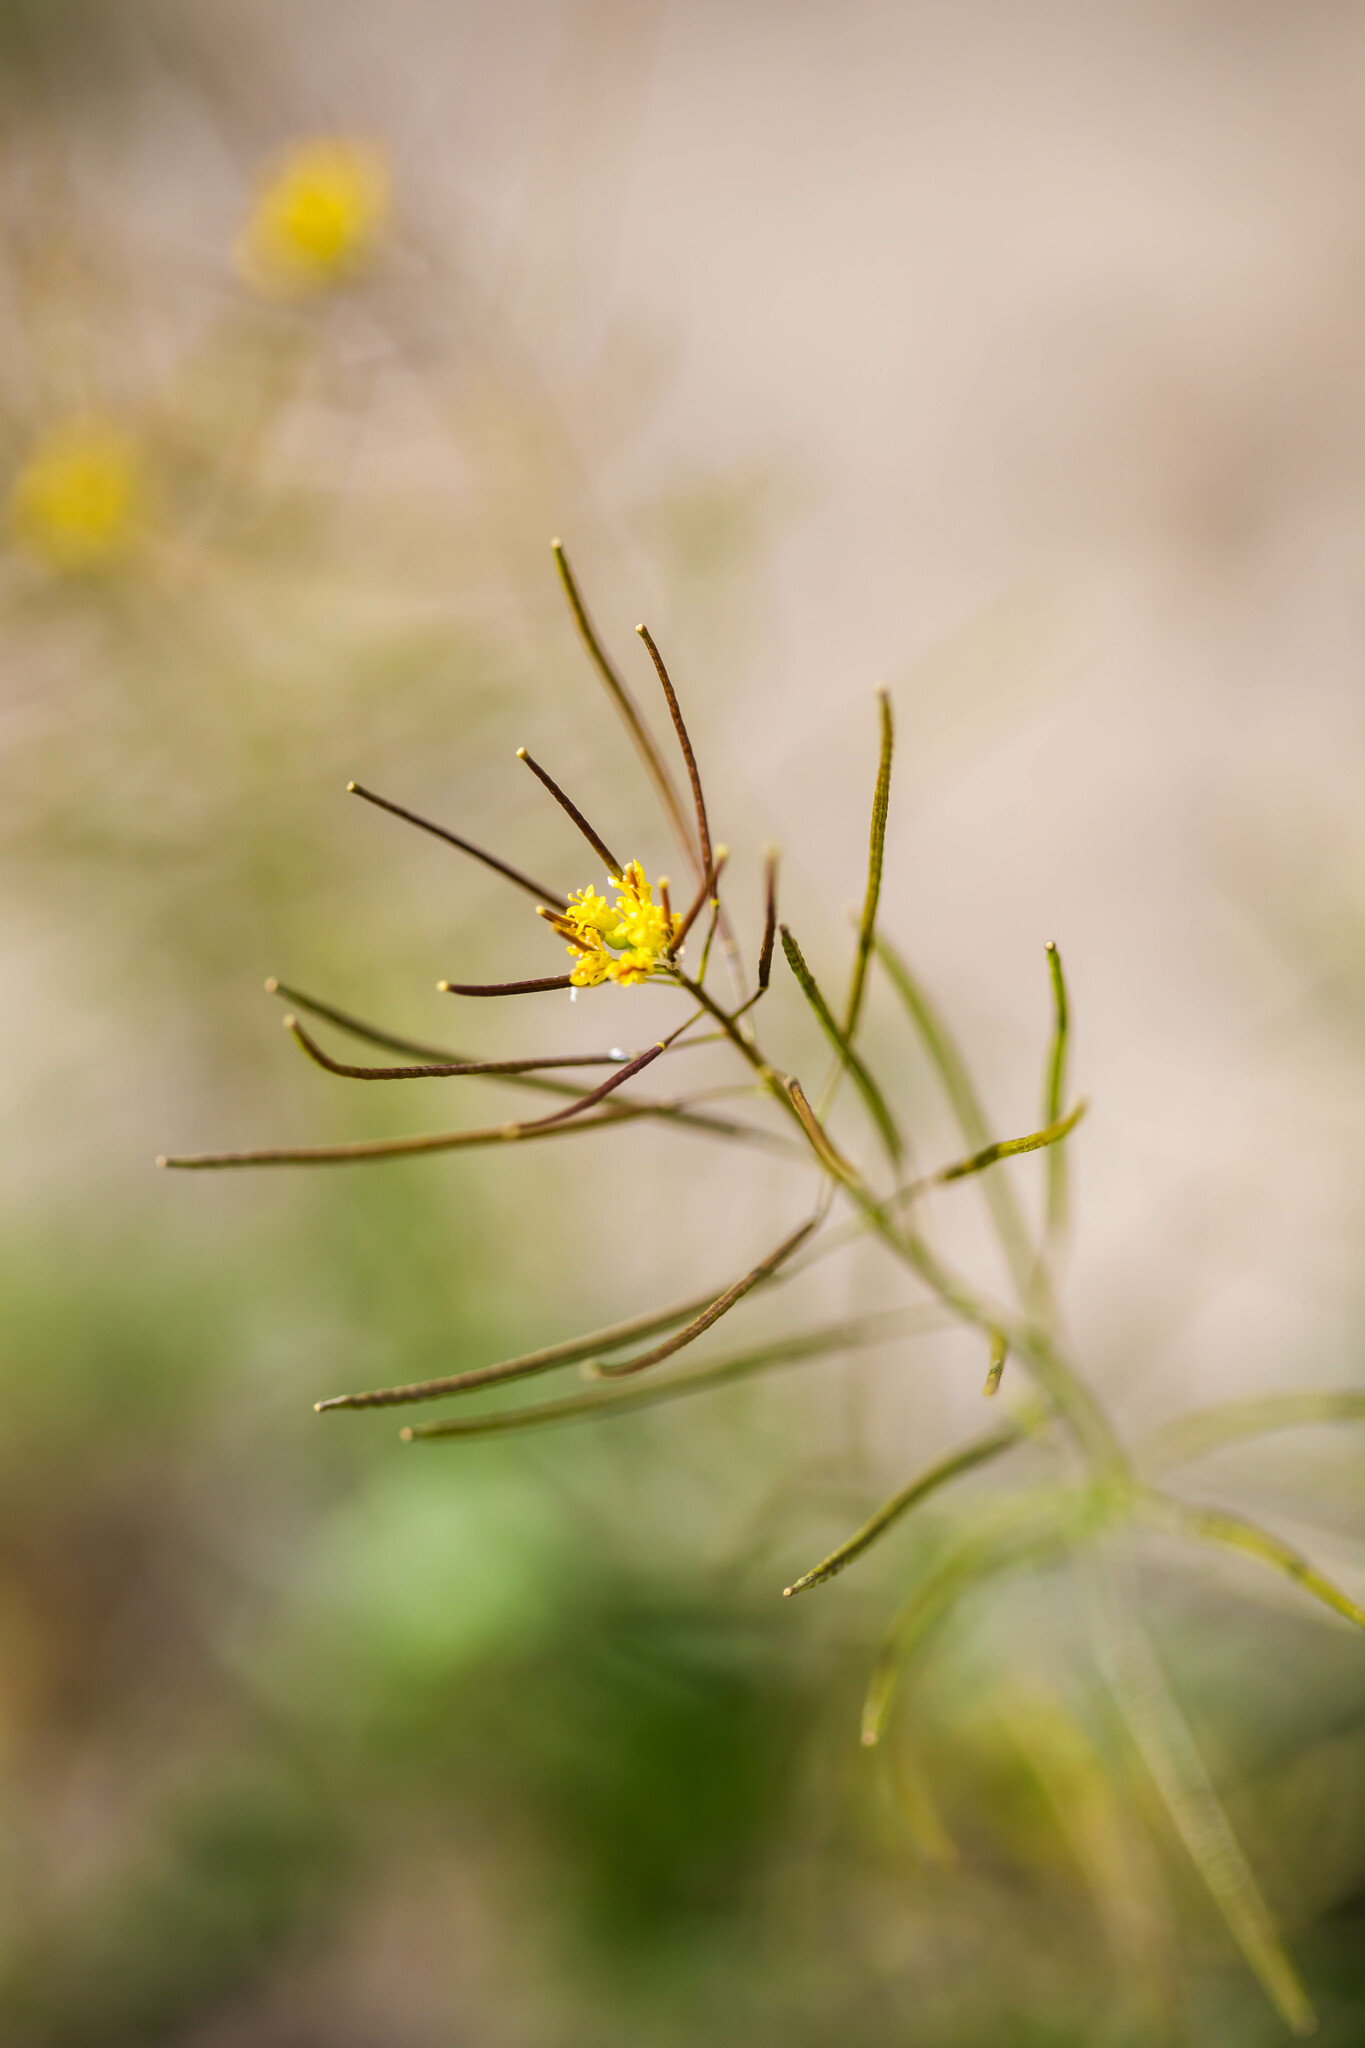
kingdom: Plantae
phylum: Tracheophyta
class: Magnoliopsida
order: Brassicales
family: Brassicaceae
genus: Sisymbrium
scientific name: Sisymbrium irio
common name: London rocket
